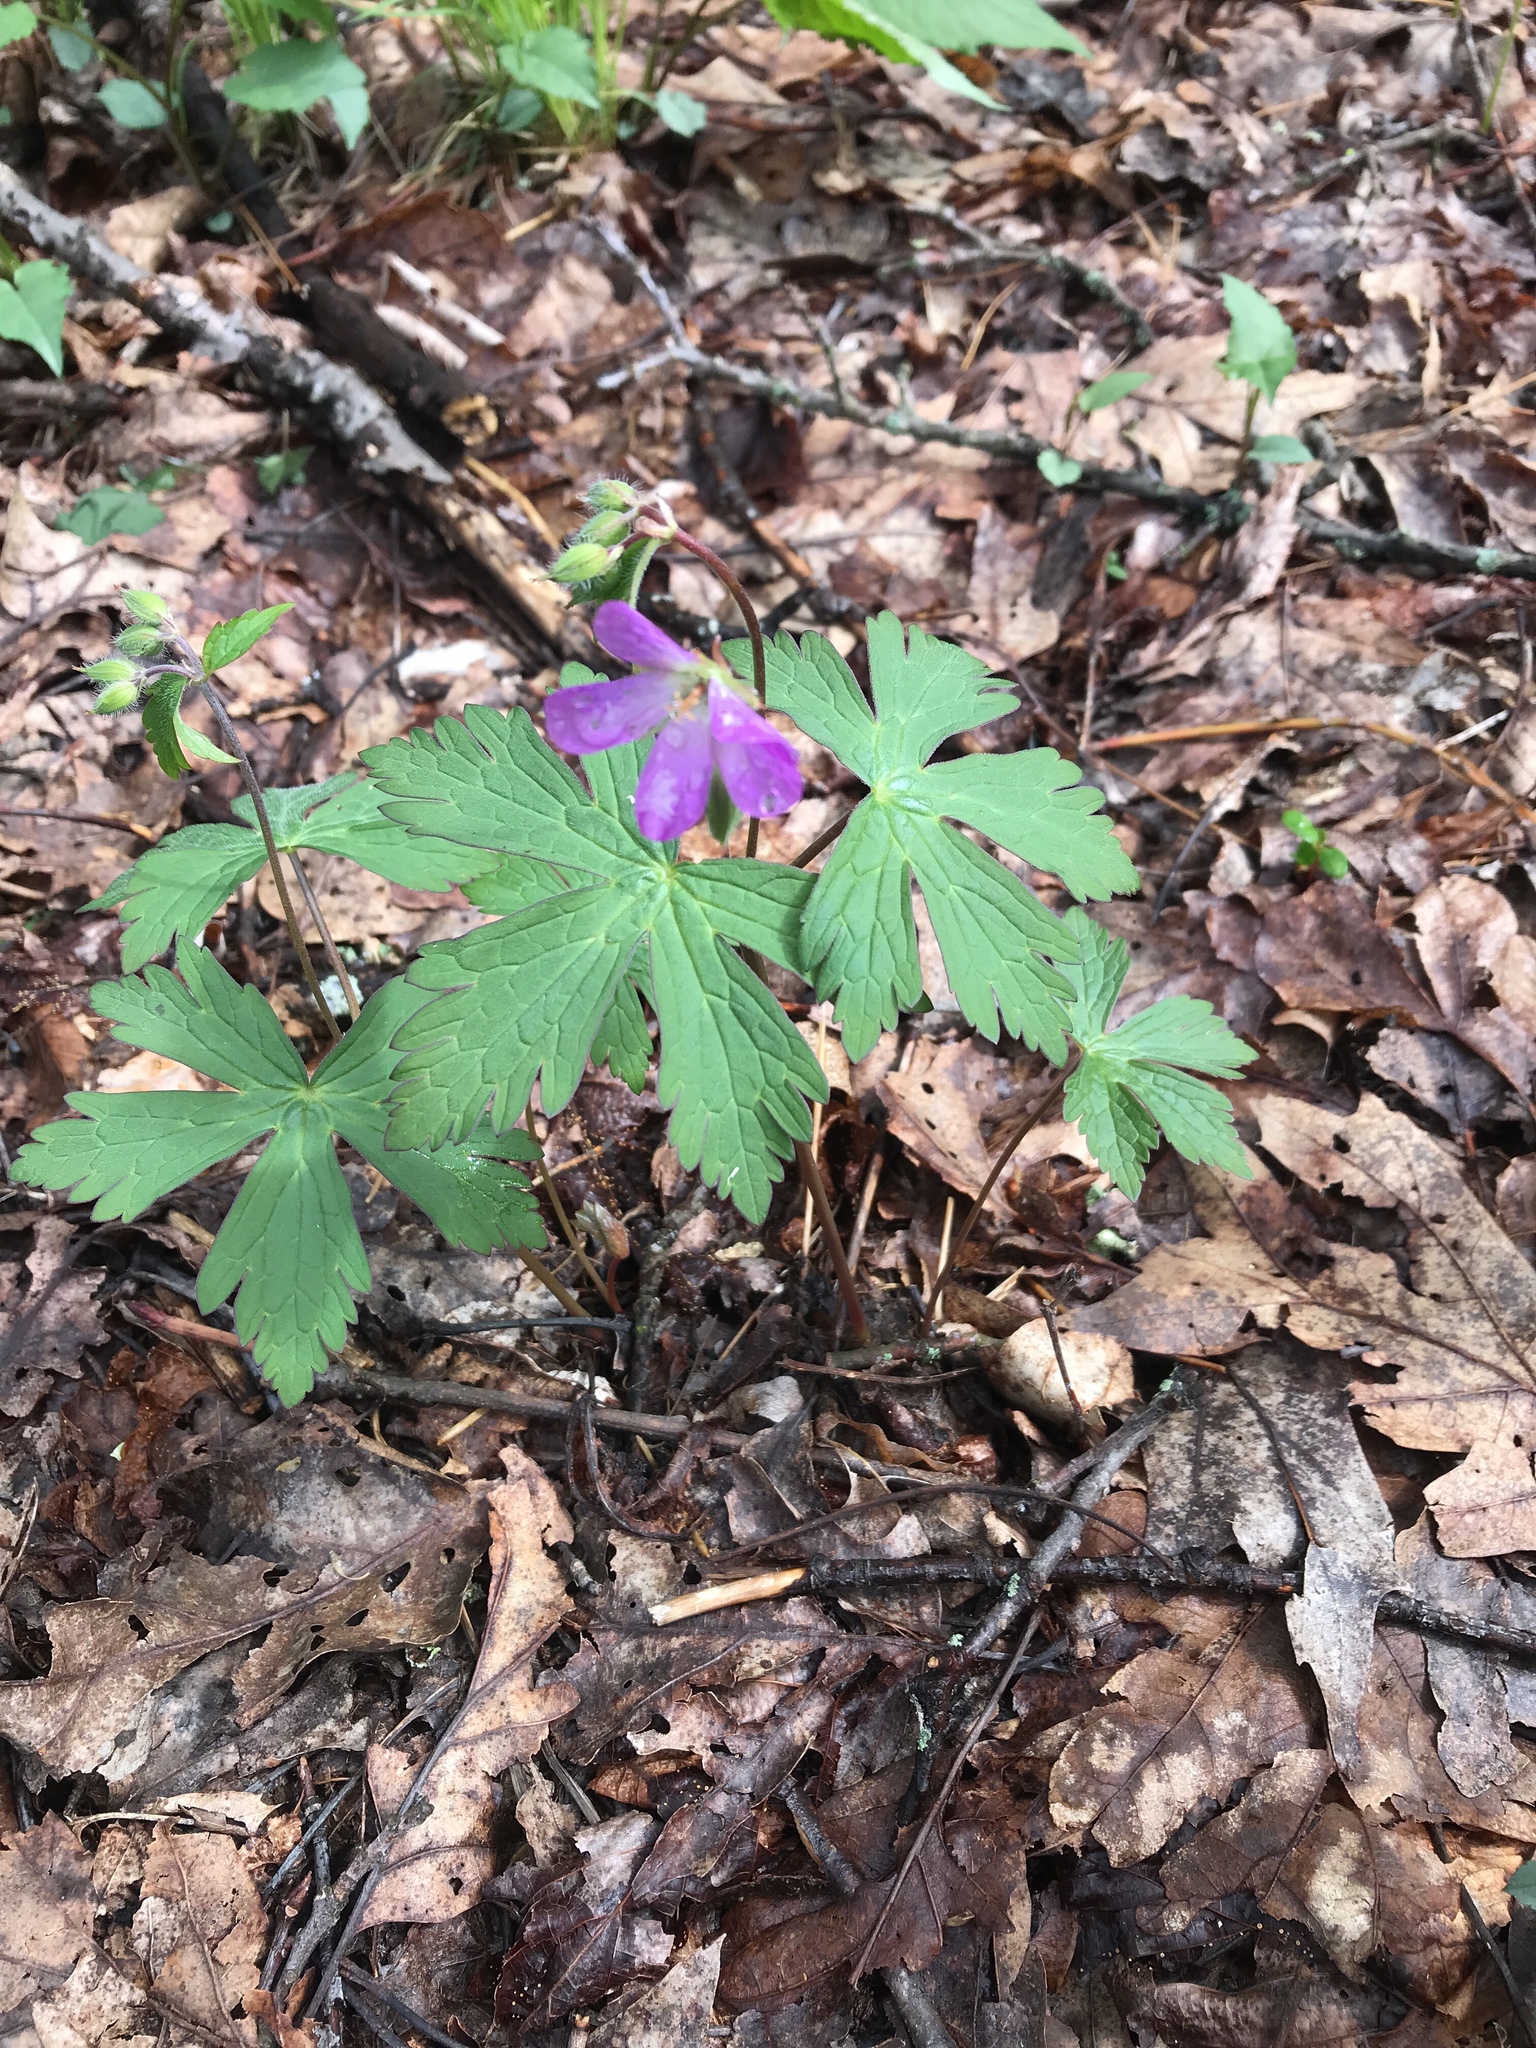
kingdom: Plantae
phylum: Tracheophyta
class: Magnoliopsida
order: Geraniales
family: Geraniaceae
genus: Geranium
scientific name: Geranium maculatum
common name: Spotted geranium
